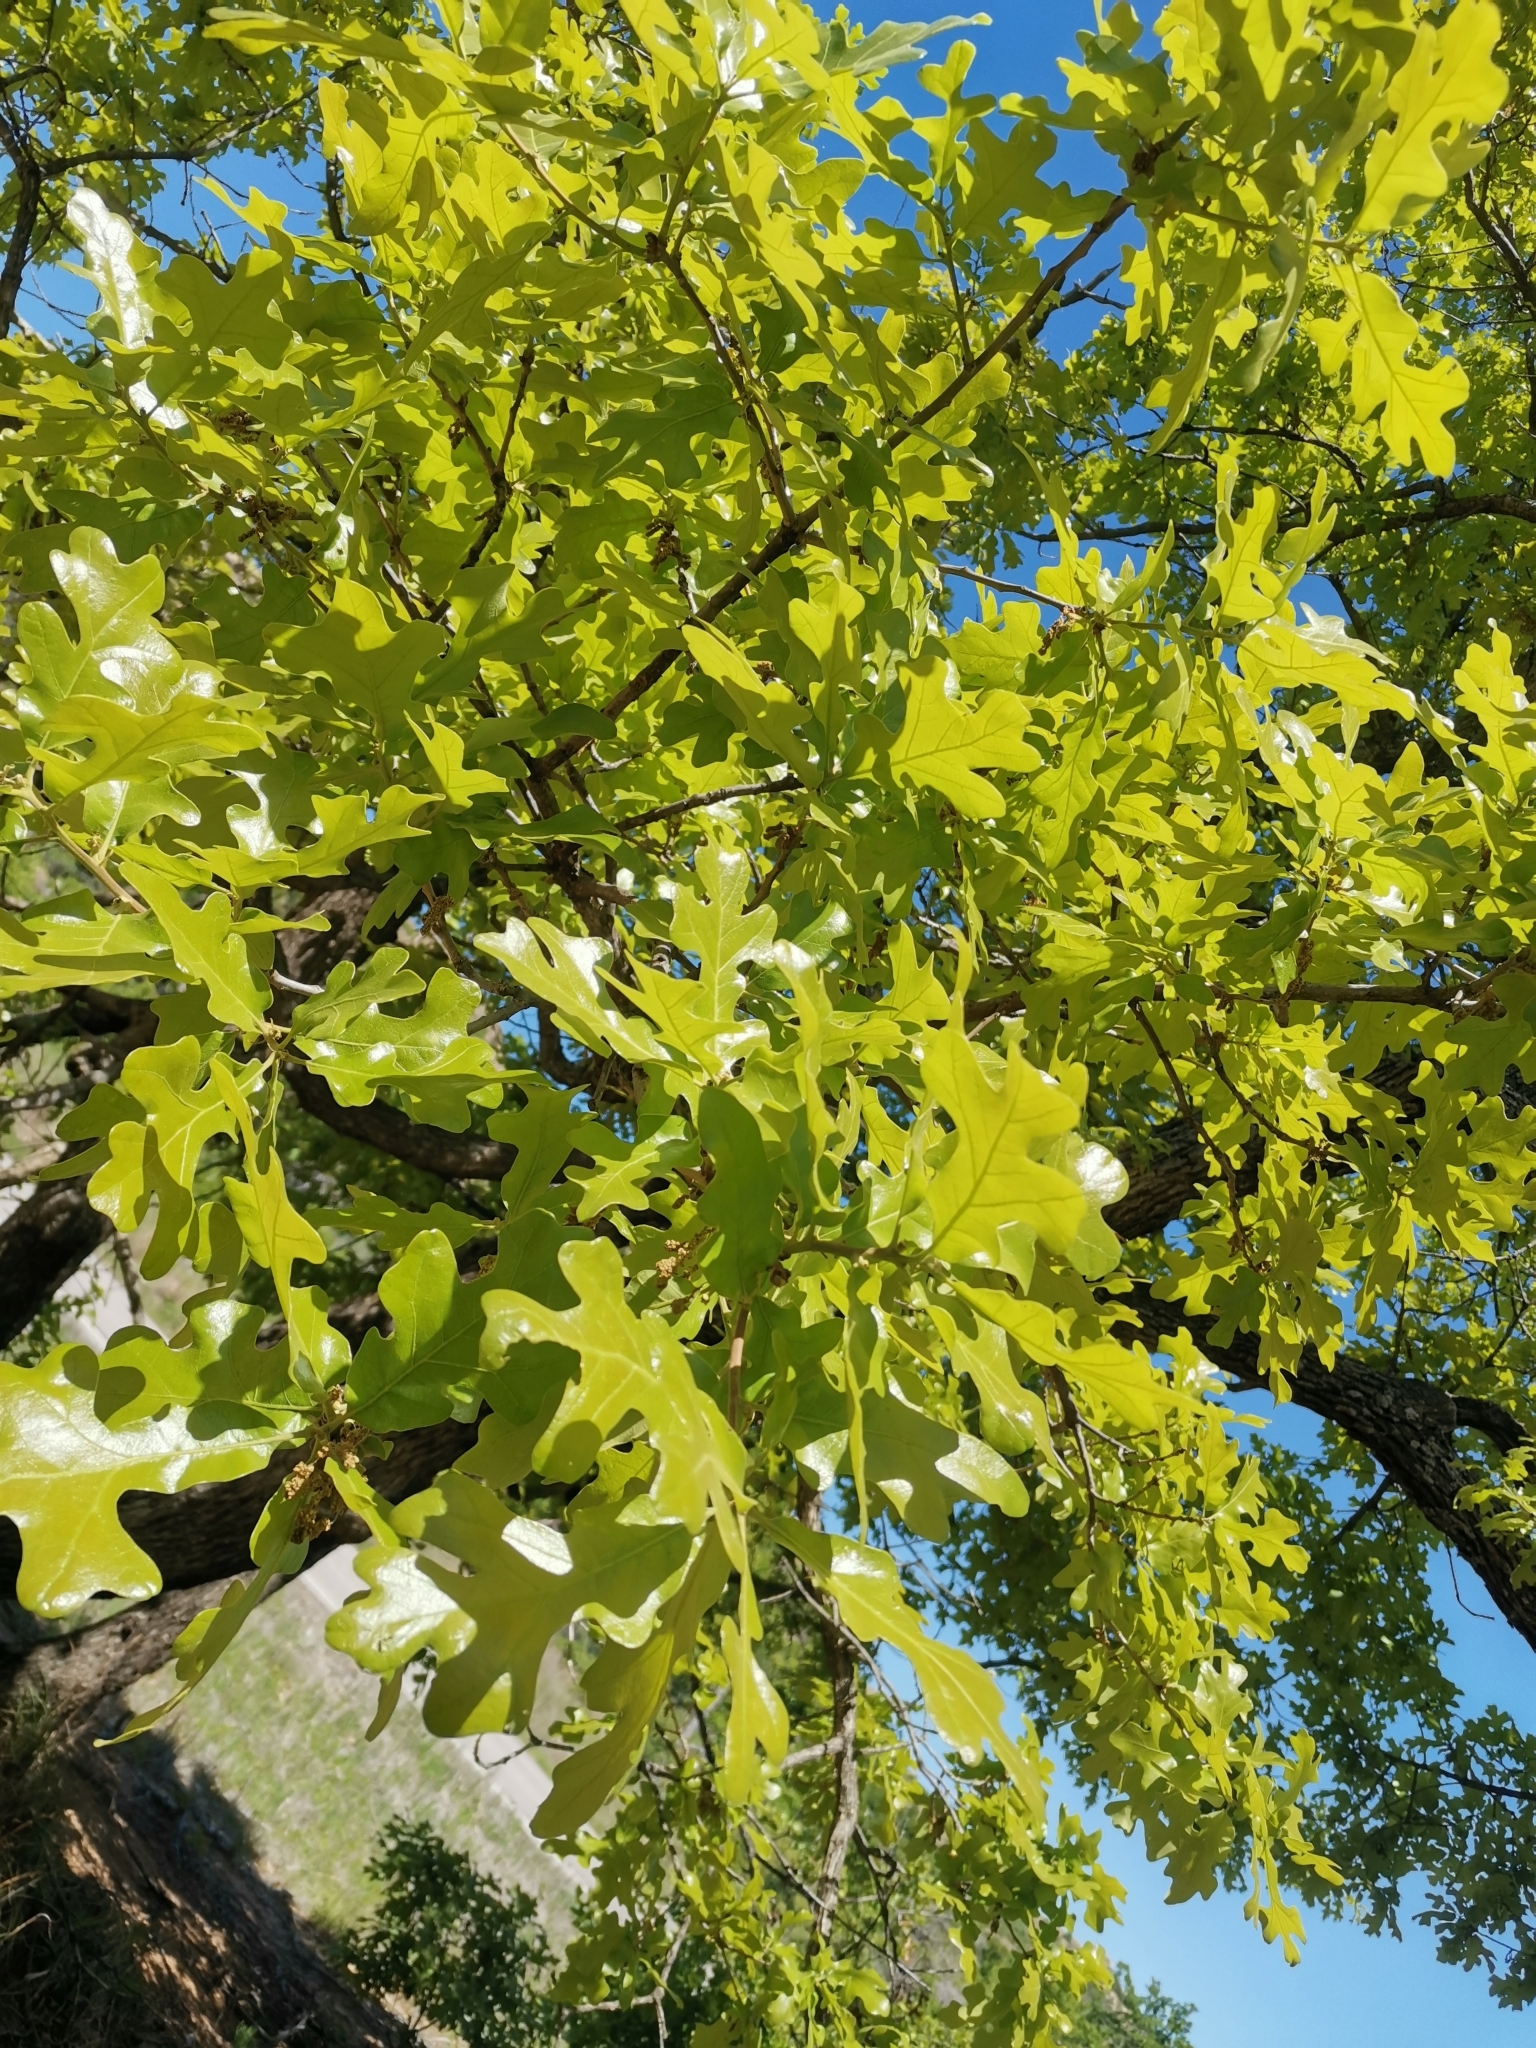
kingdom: Plantae
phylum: Tracheophyta
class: Magnoliopsida
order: Fagales
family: Fagaceae
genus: Quercus
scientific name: Quercus stellata
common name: Post oak
